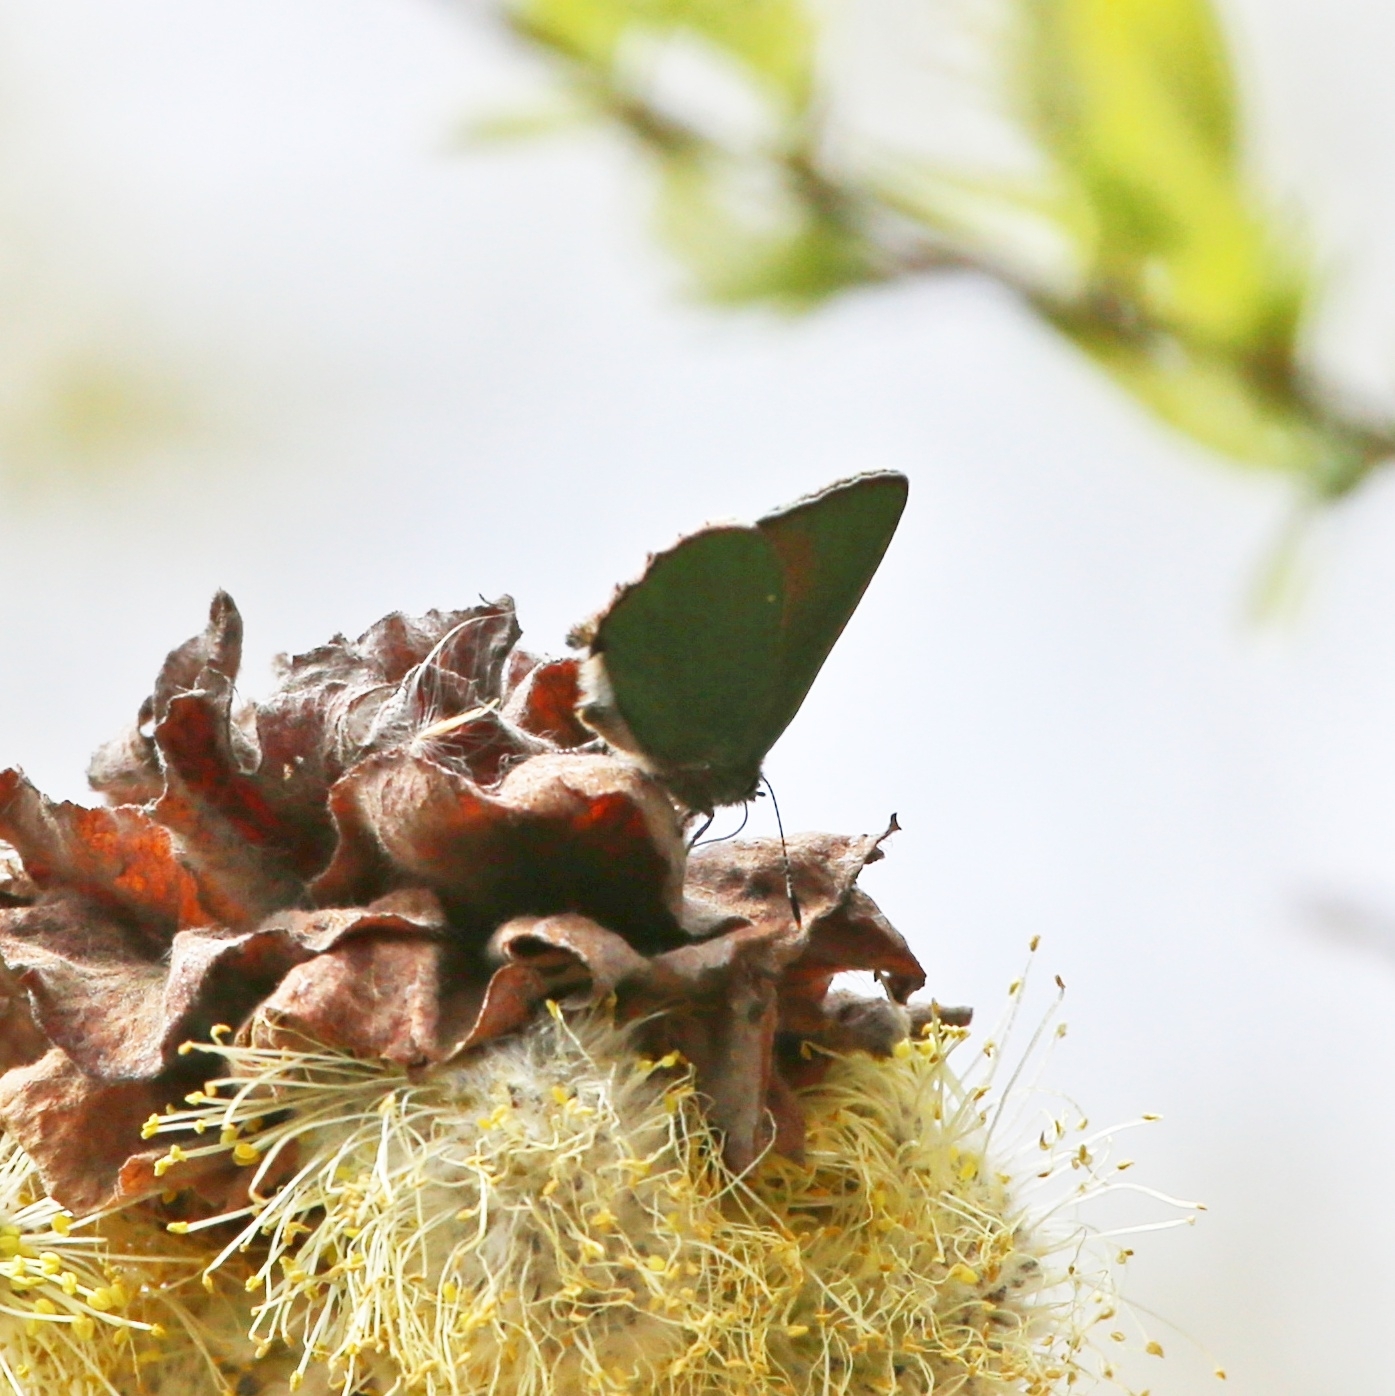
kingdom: Animalia
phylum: Arthropoda
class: Insecta
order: Lepidoptera
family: Lycaenidae
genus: Callophrys
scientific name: Callophrys rubi
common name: Green hairstreak
